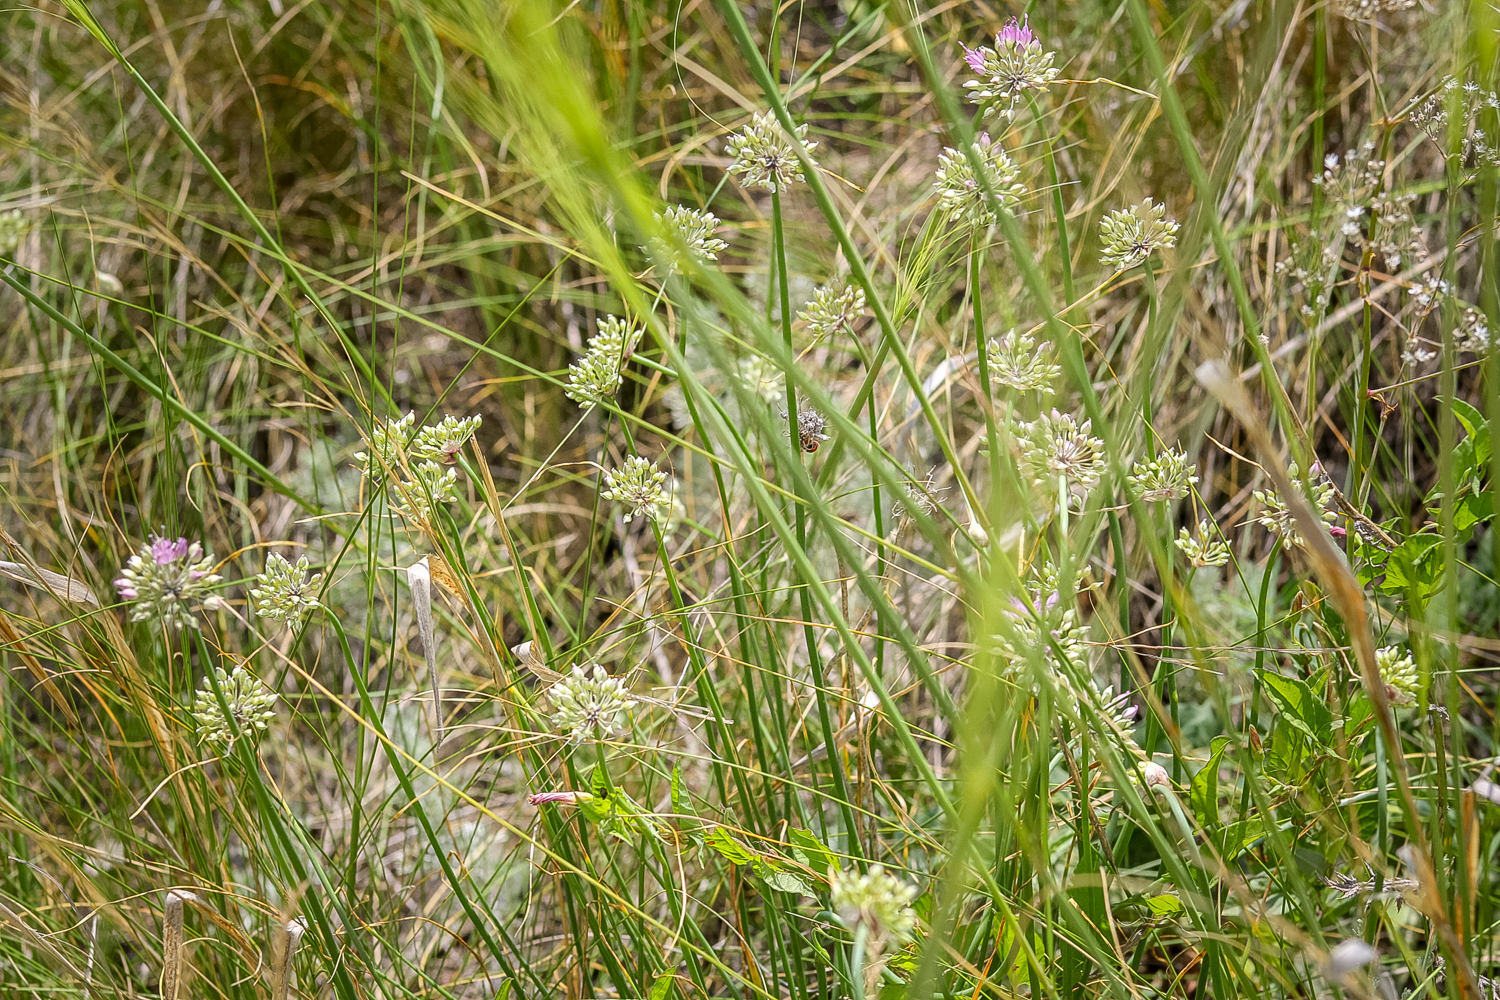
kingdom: Plantae
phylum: Tracheophyta
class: Liliopsida
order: Asparagales
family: Amaryllidaceae
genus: Allium
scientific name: Allium cretaceum
